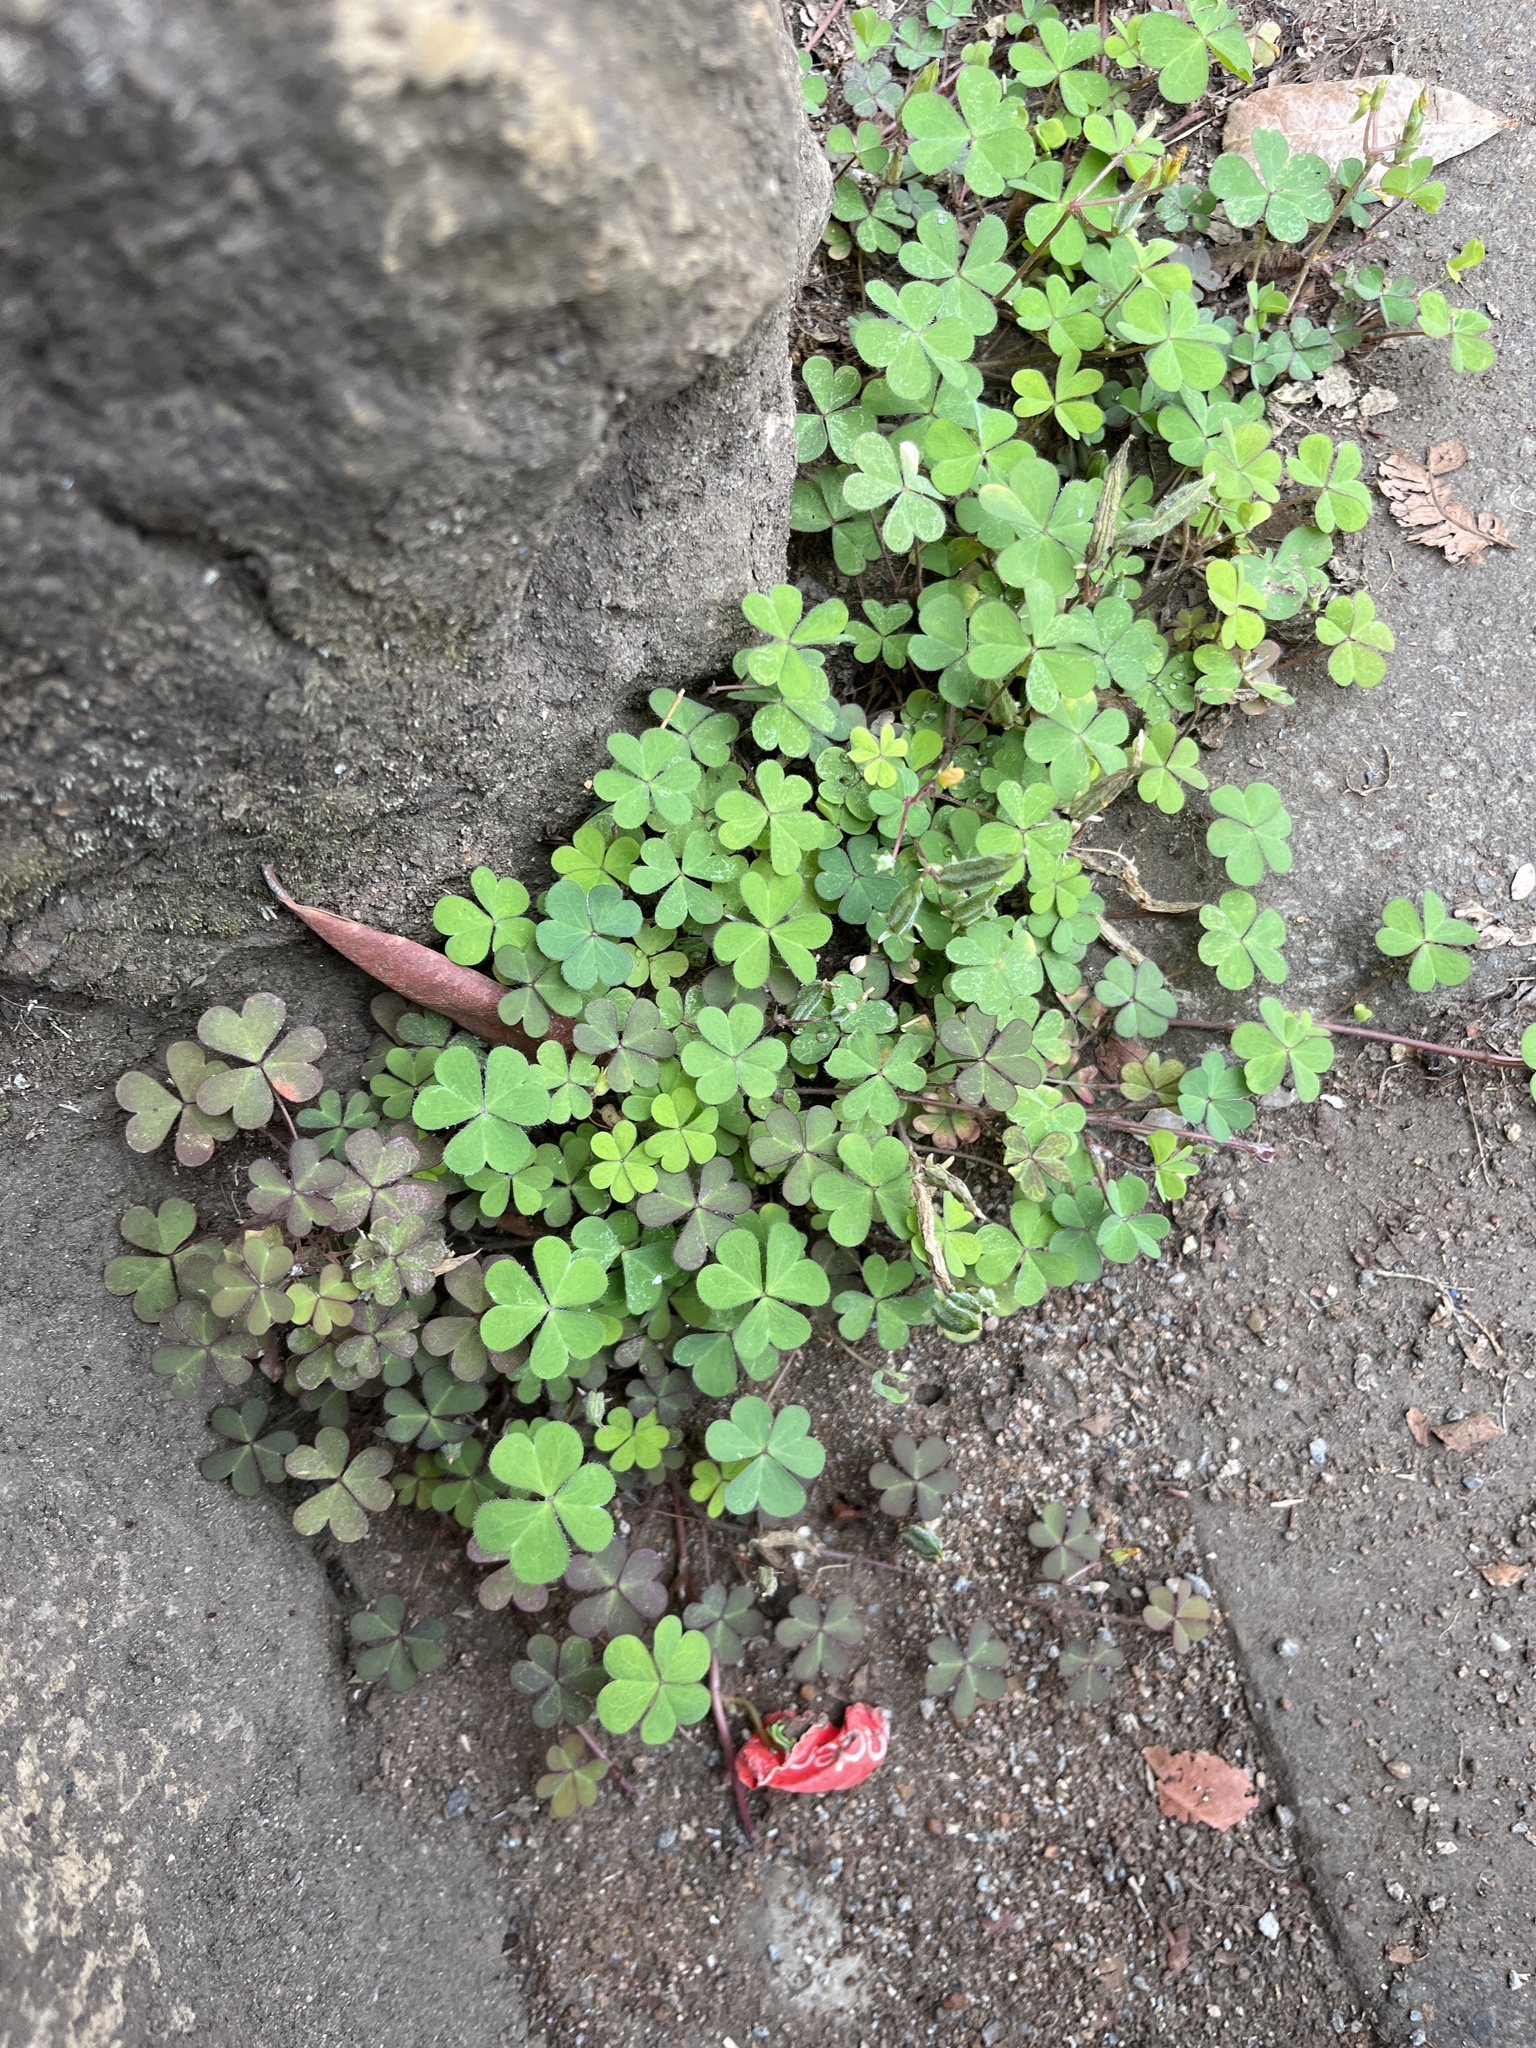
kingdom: Plantae
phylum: Tracheophyta
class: Magnoliopsida
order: Oxalidales
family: Oxalidaceae
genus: Oxalis
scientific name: Oxalis corniculata
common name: Procumbent yellow-sorrel
